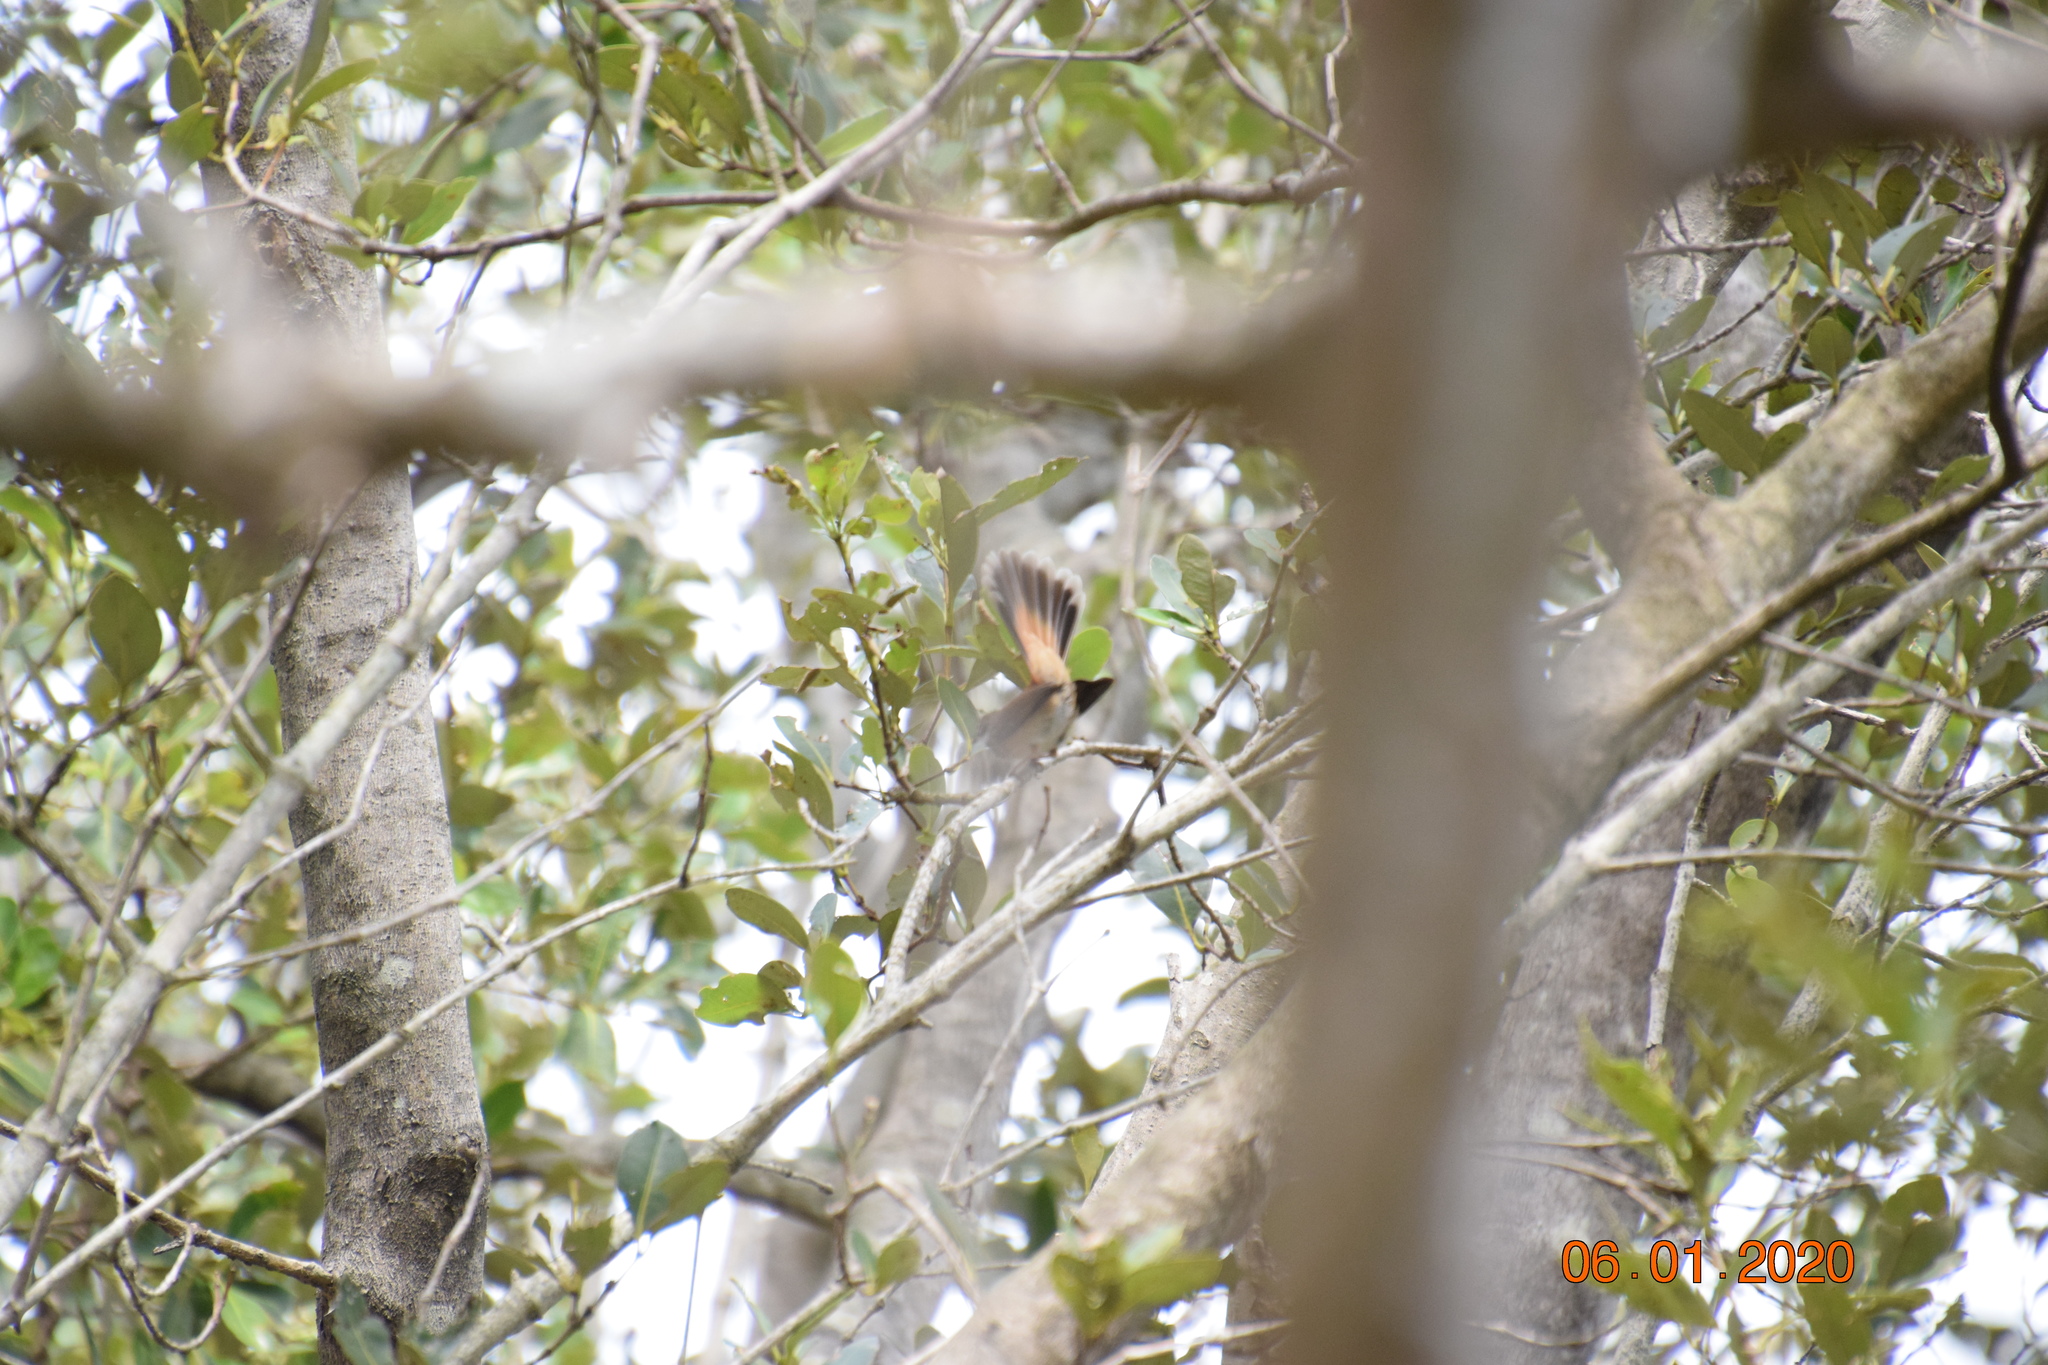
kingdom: Animalia
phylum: Chordata
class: Aves
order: Passeriformes
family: Rhipiduridae
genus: Rhipidura
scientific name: Rhipidura rufifrons
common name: Rufous fantail
